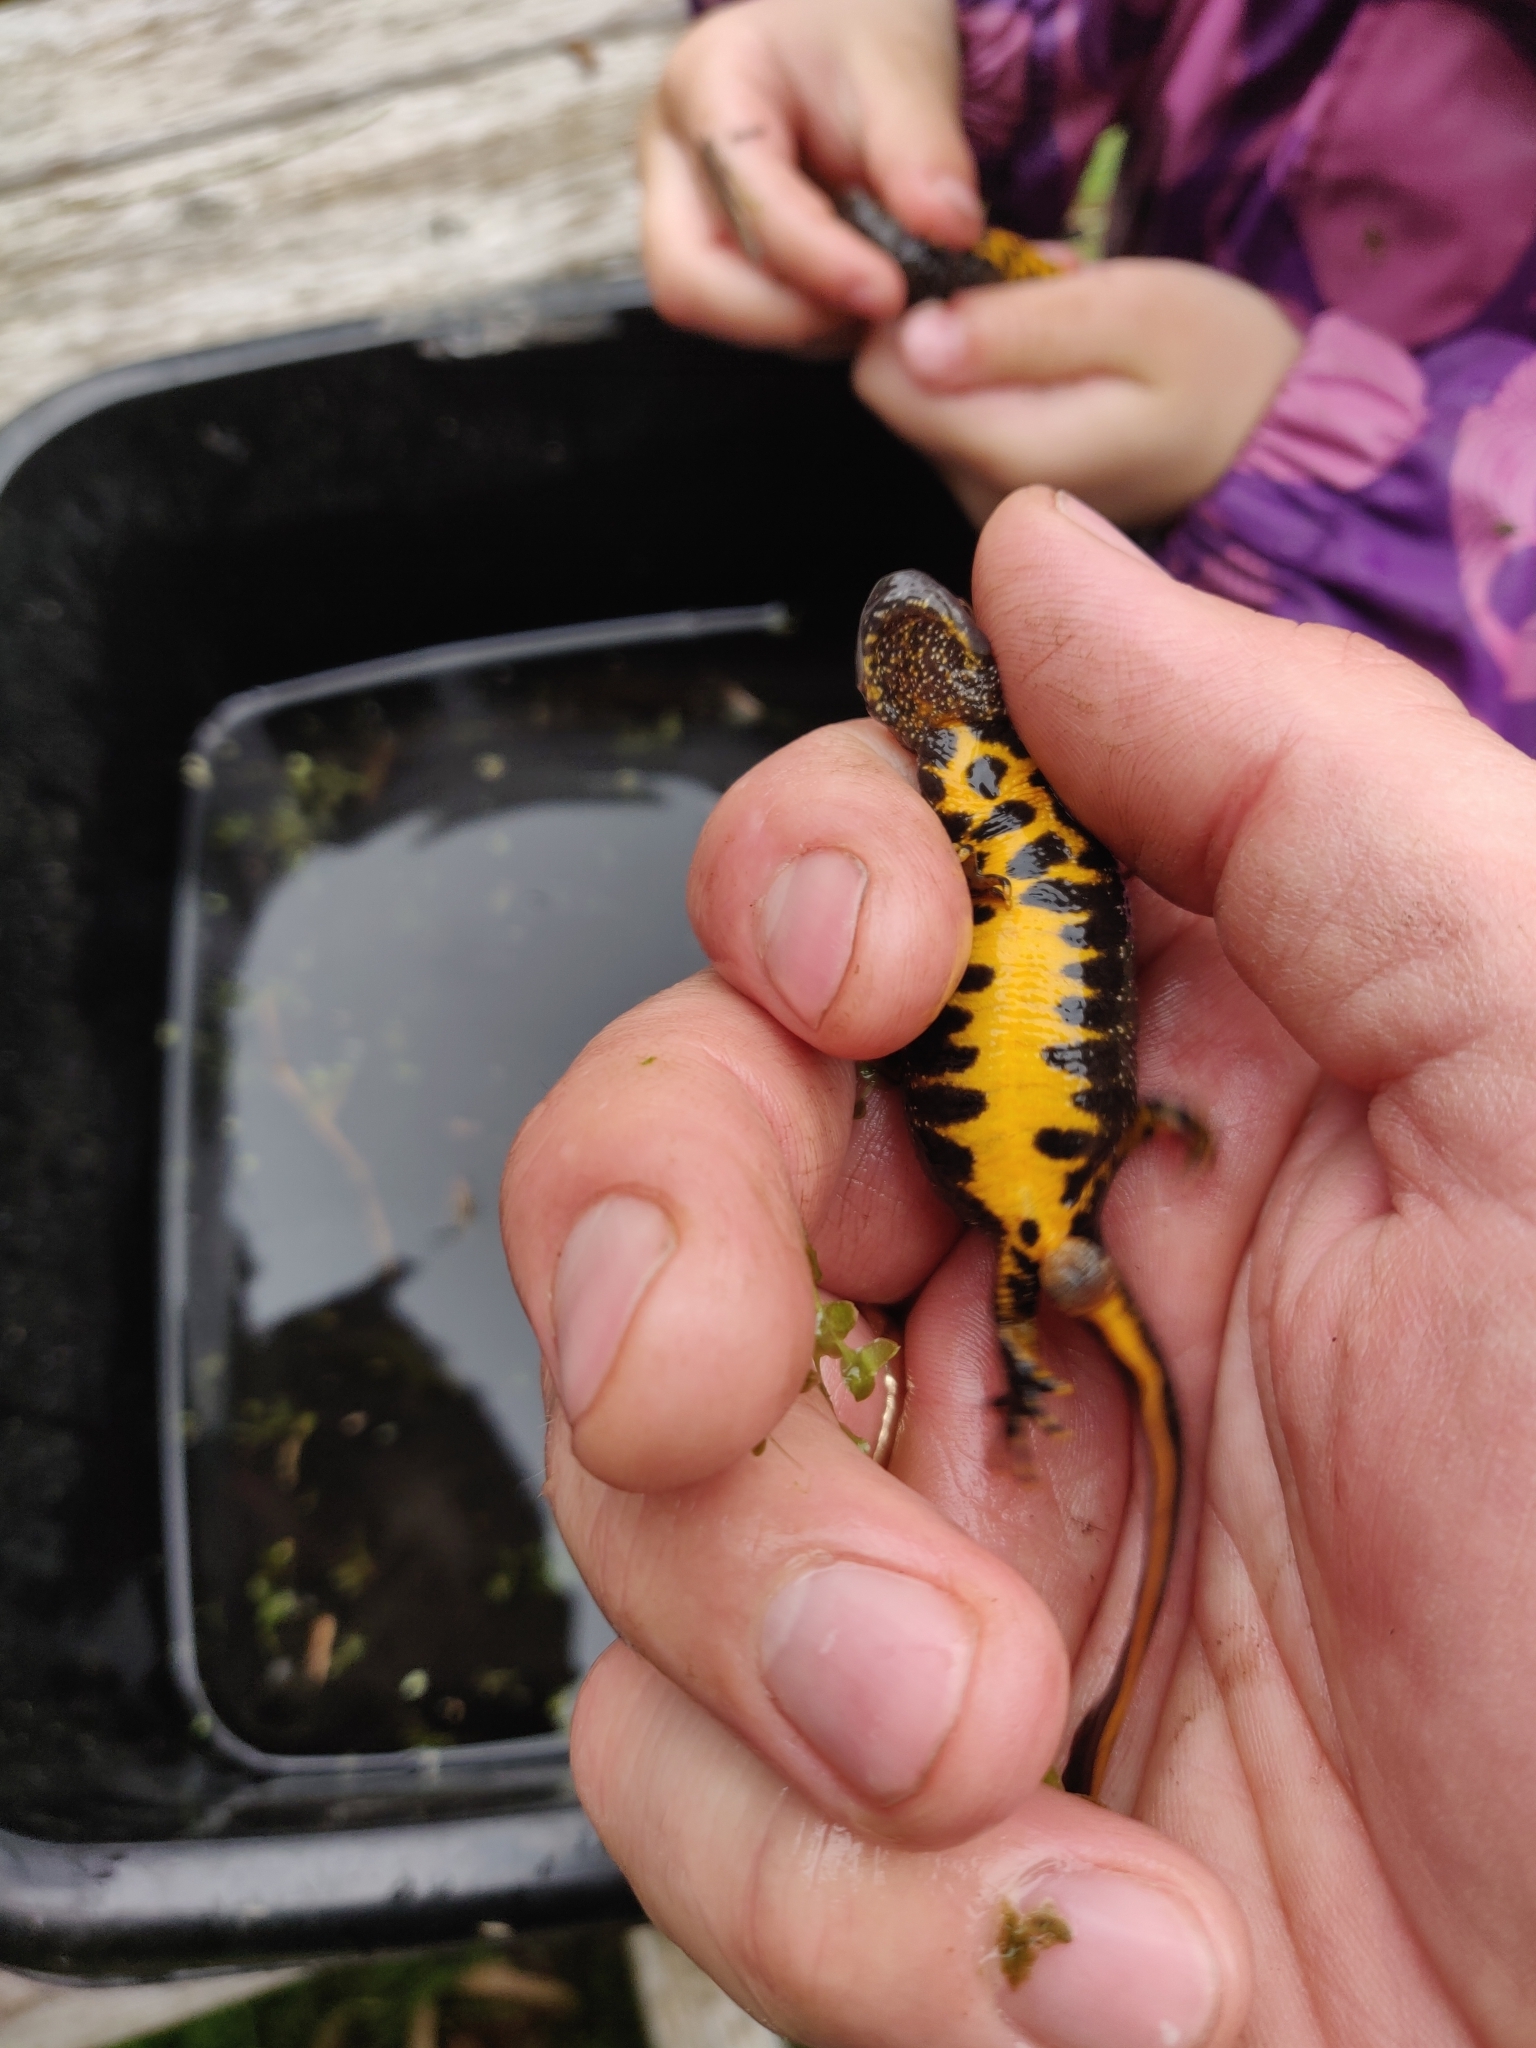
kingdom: Animalia
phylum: Chordata
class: Amphibia
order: Caudata
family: Salamandridae
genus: Triturus
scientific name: Triturus cristatus
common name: Crested newt
